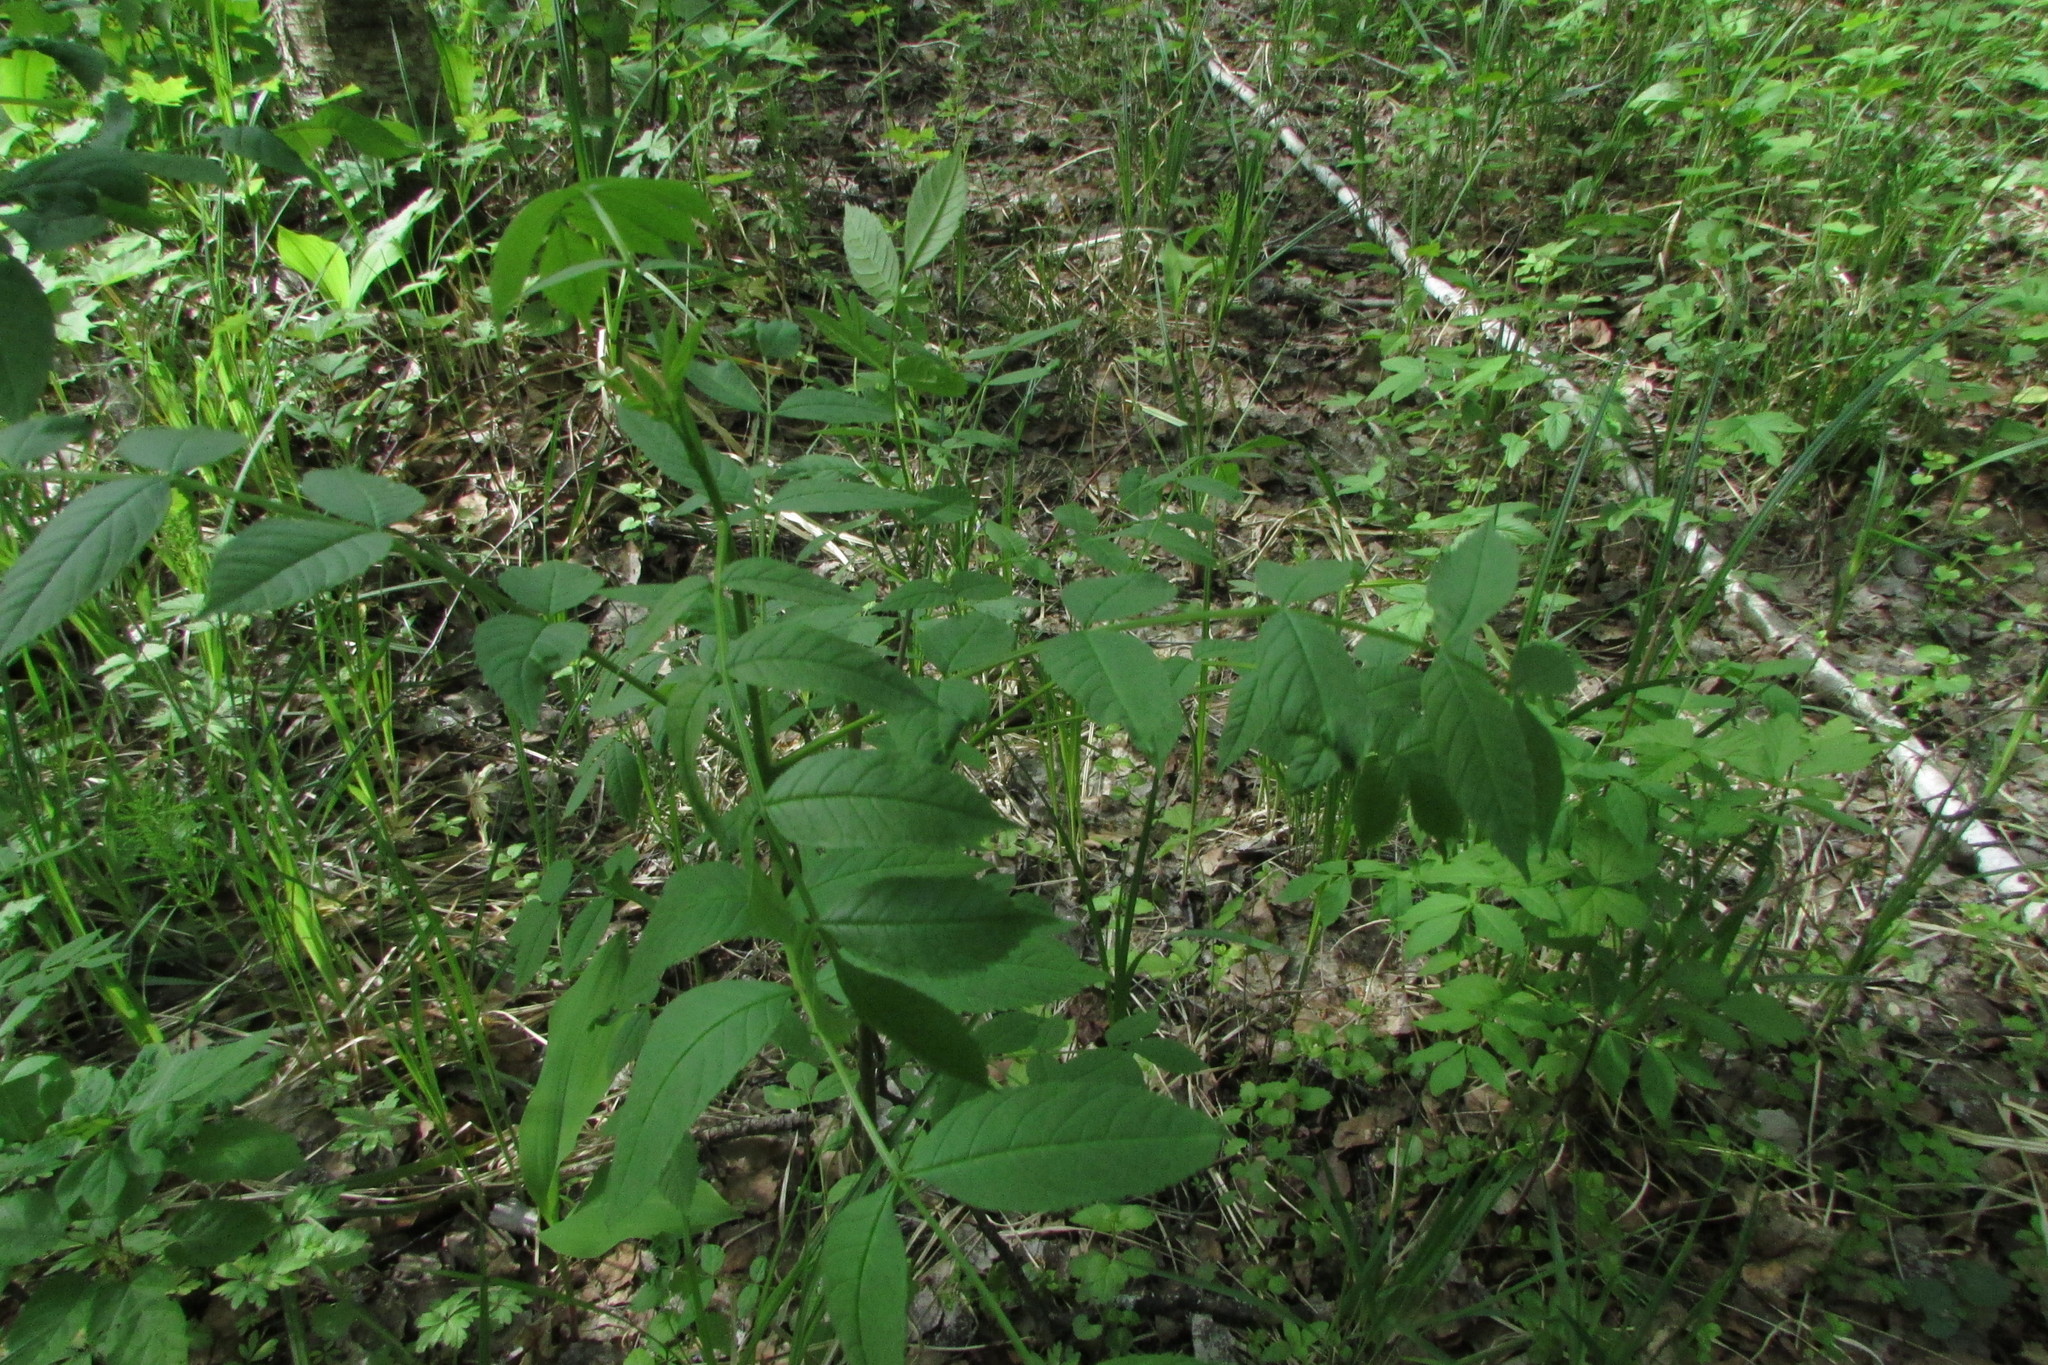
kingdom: Plantae
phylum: Tracheophyta
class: Magnoliopsida
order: Lamiales
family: Oleaceae
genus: Fraxinus
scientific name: Fraxinus excelsior
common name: European ash
